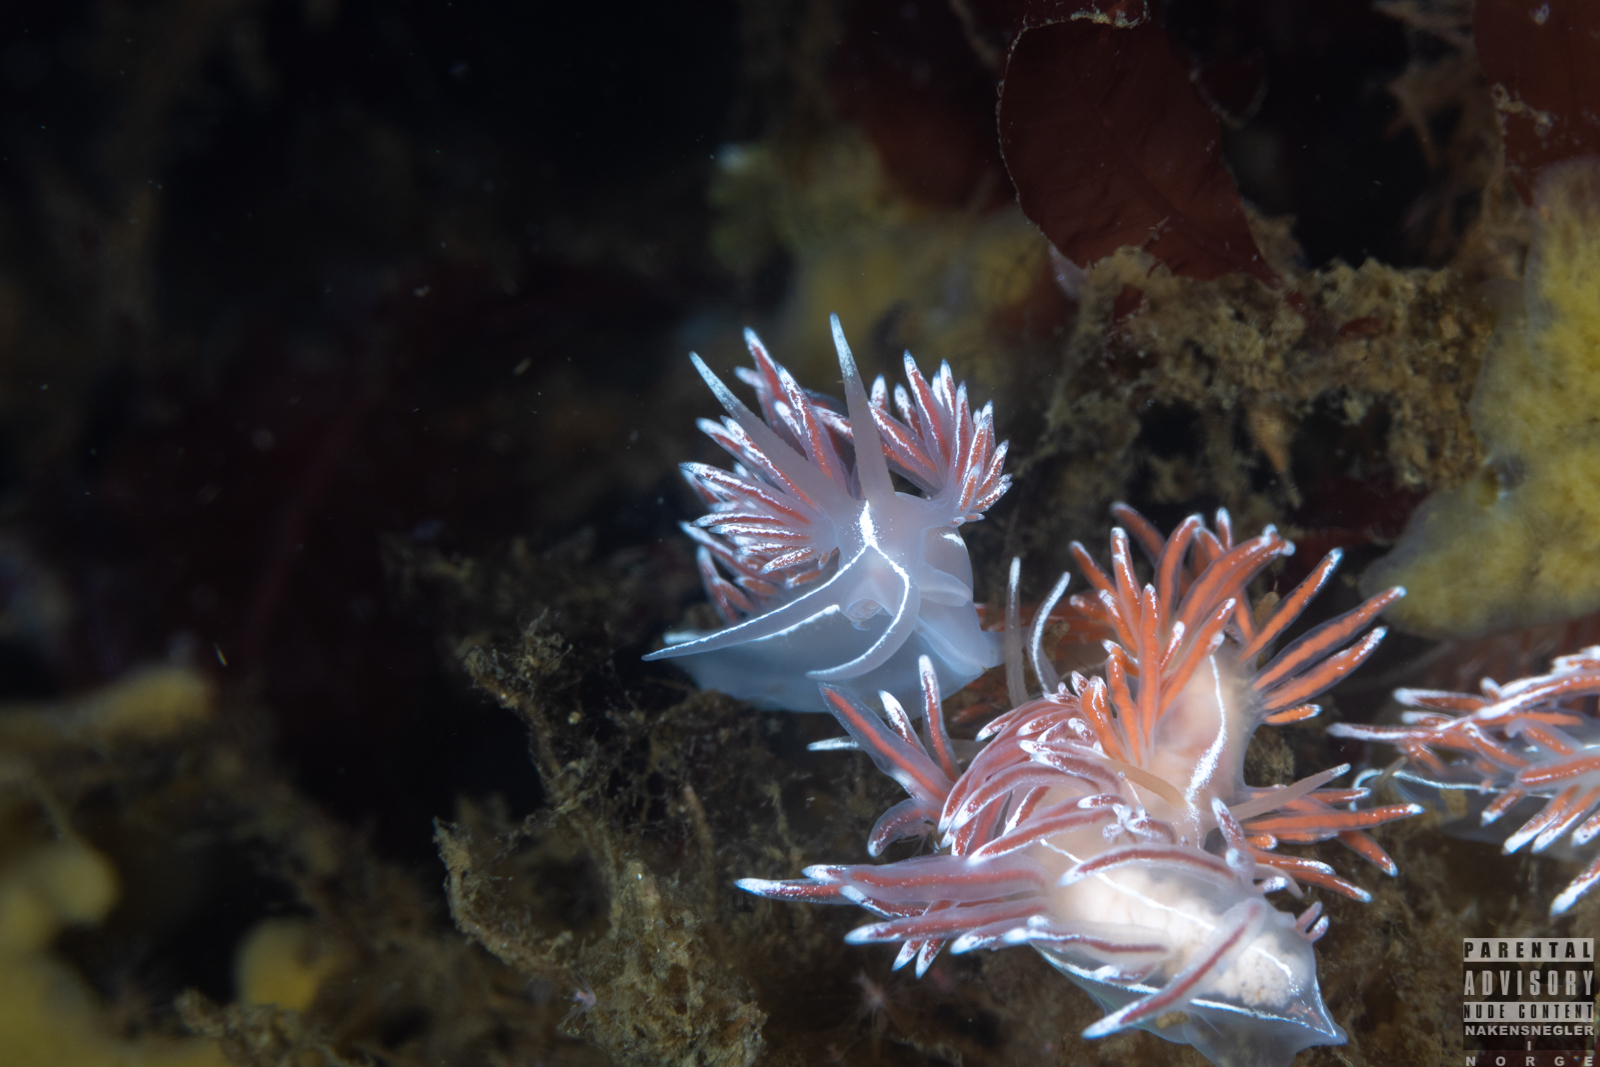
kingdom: Animalia
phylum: Mollusca
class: Gastropoda
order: Nudibranchia
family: Coryphellidae
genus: Coryphella
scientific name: Coryphella lineata
